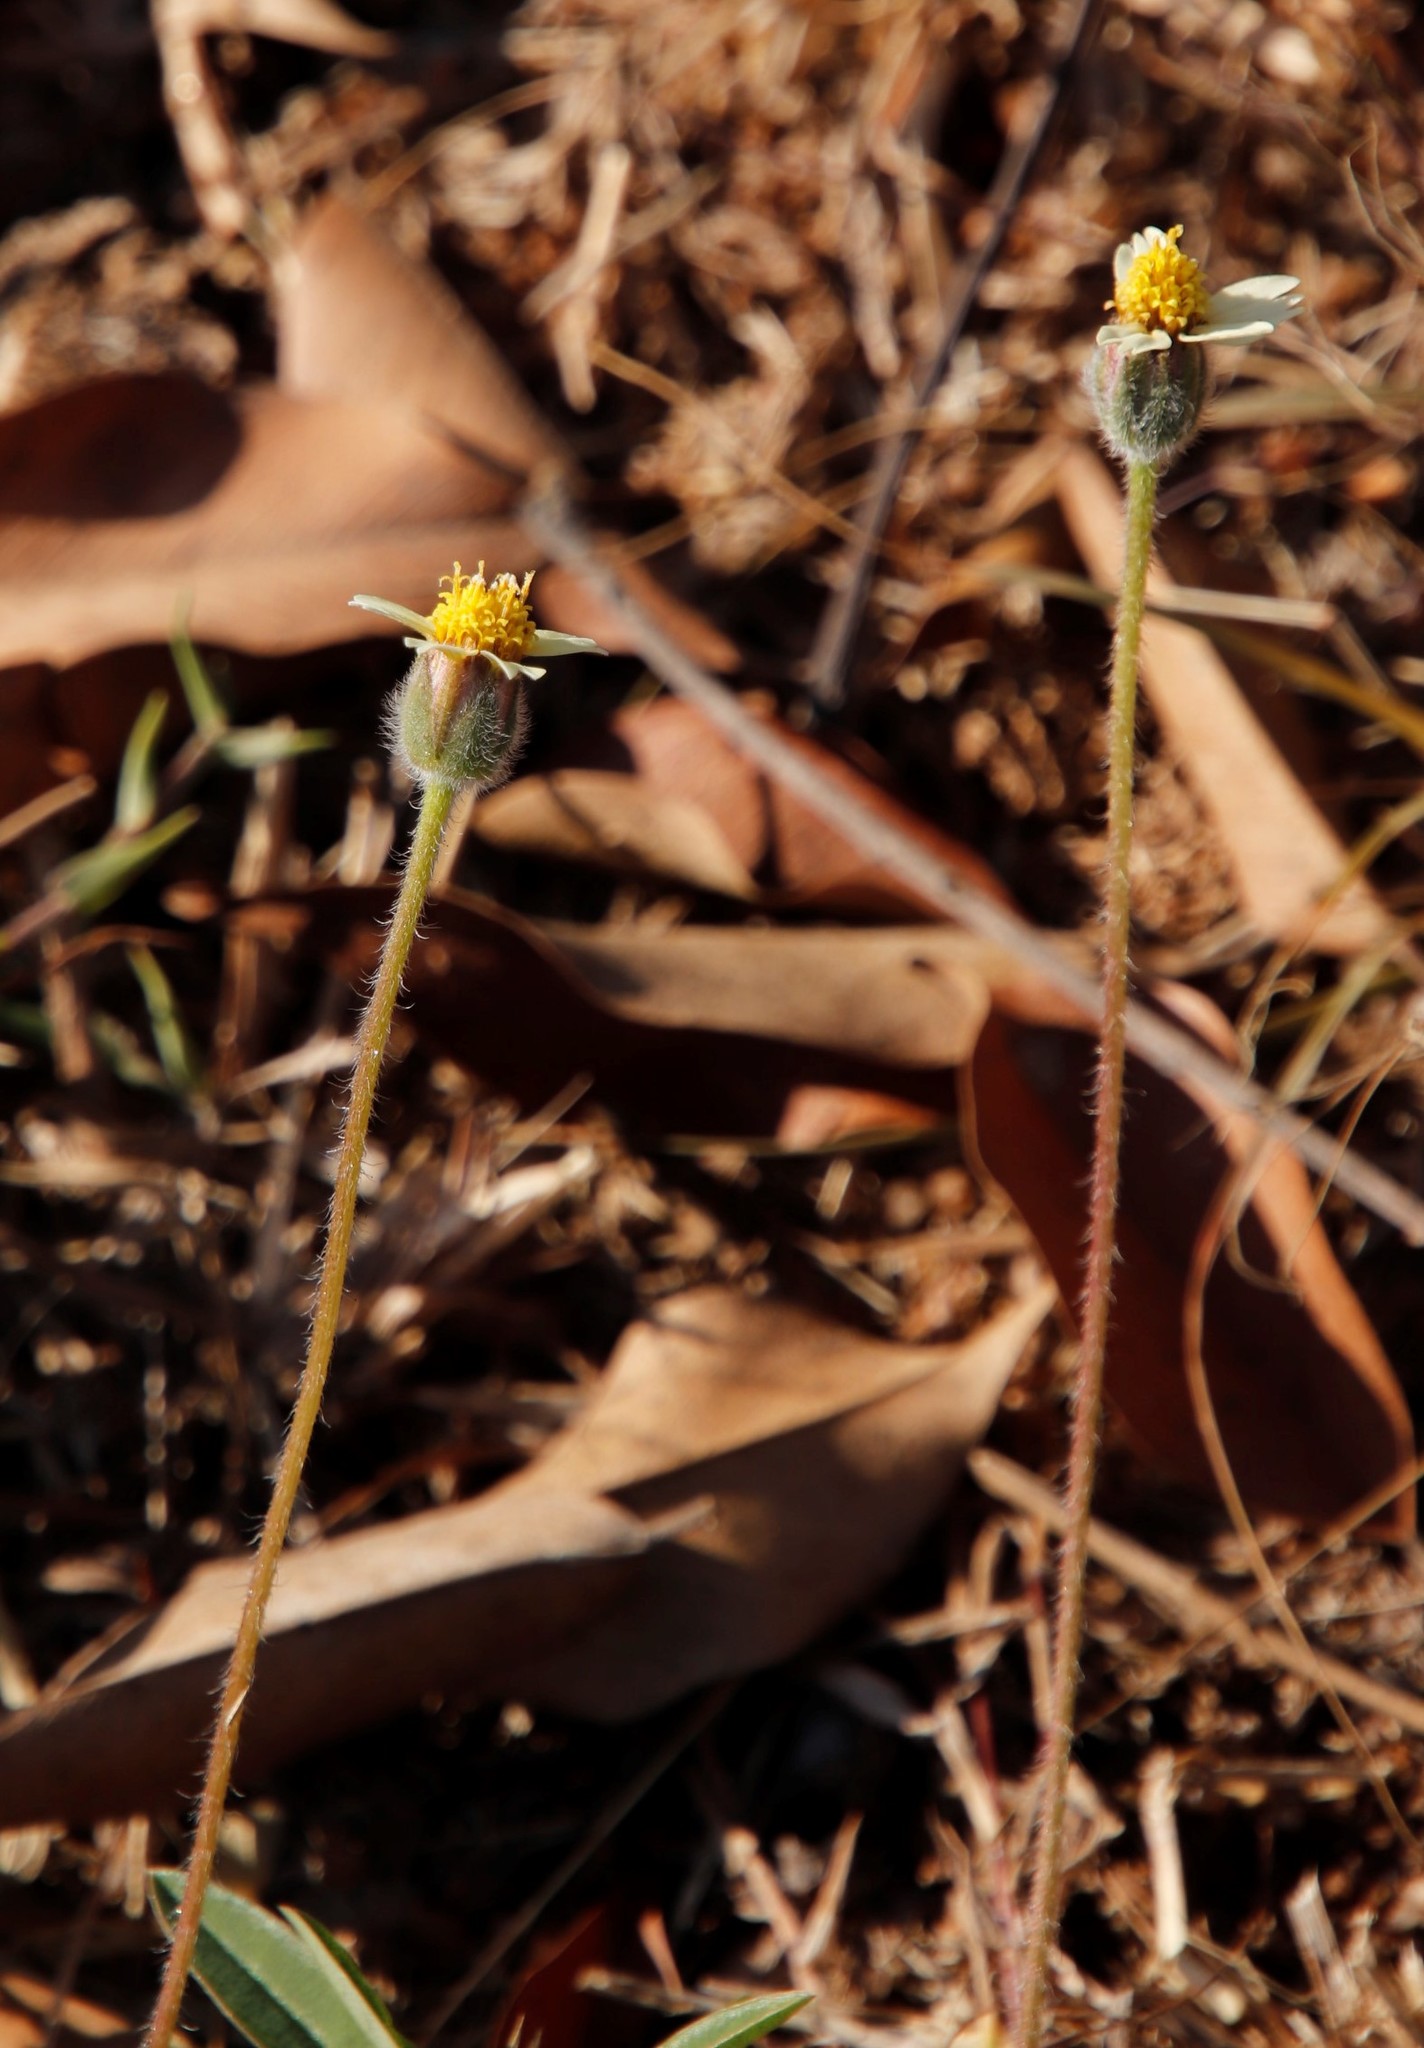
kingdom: Plantae
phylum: Tracheophyta
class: Magnoliopsida
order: Asterales
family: Asteraceae
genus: Tridax
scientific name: Tridax procumbens
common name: Coatbuttons
